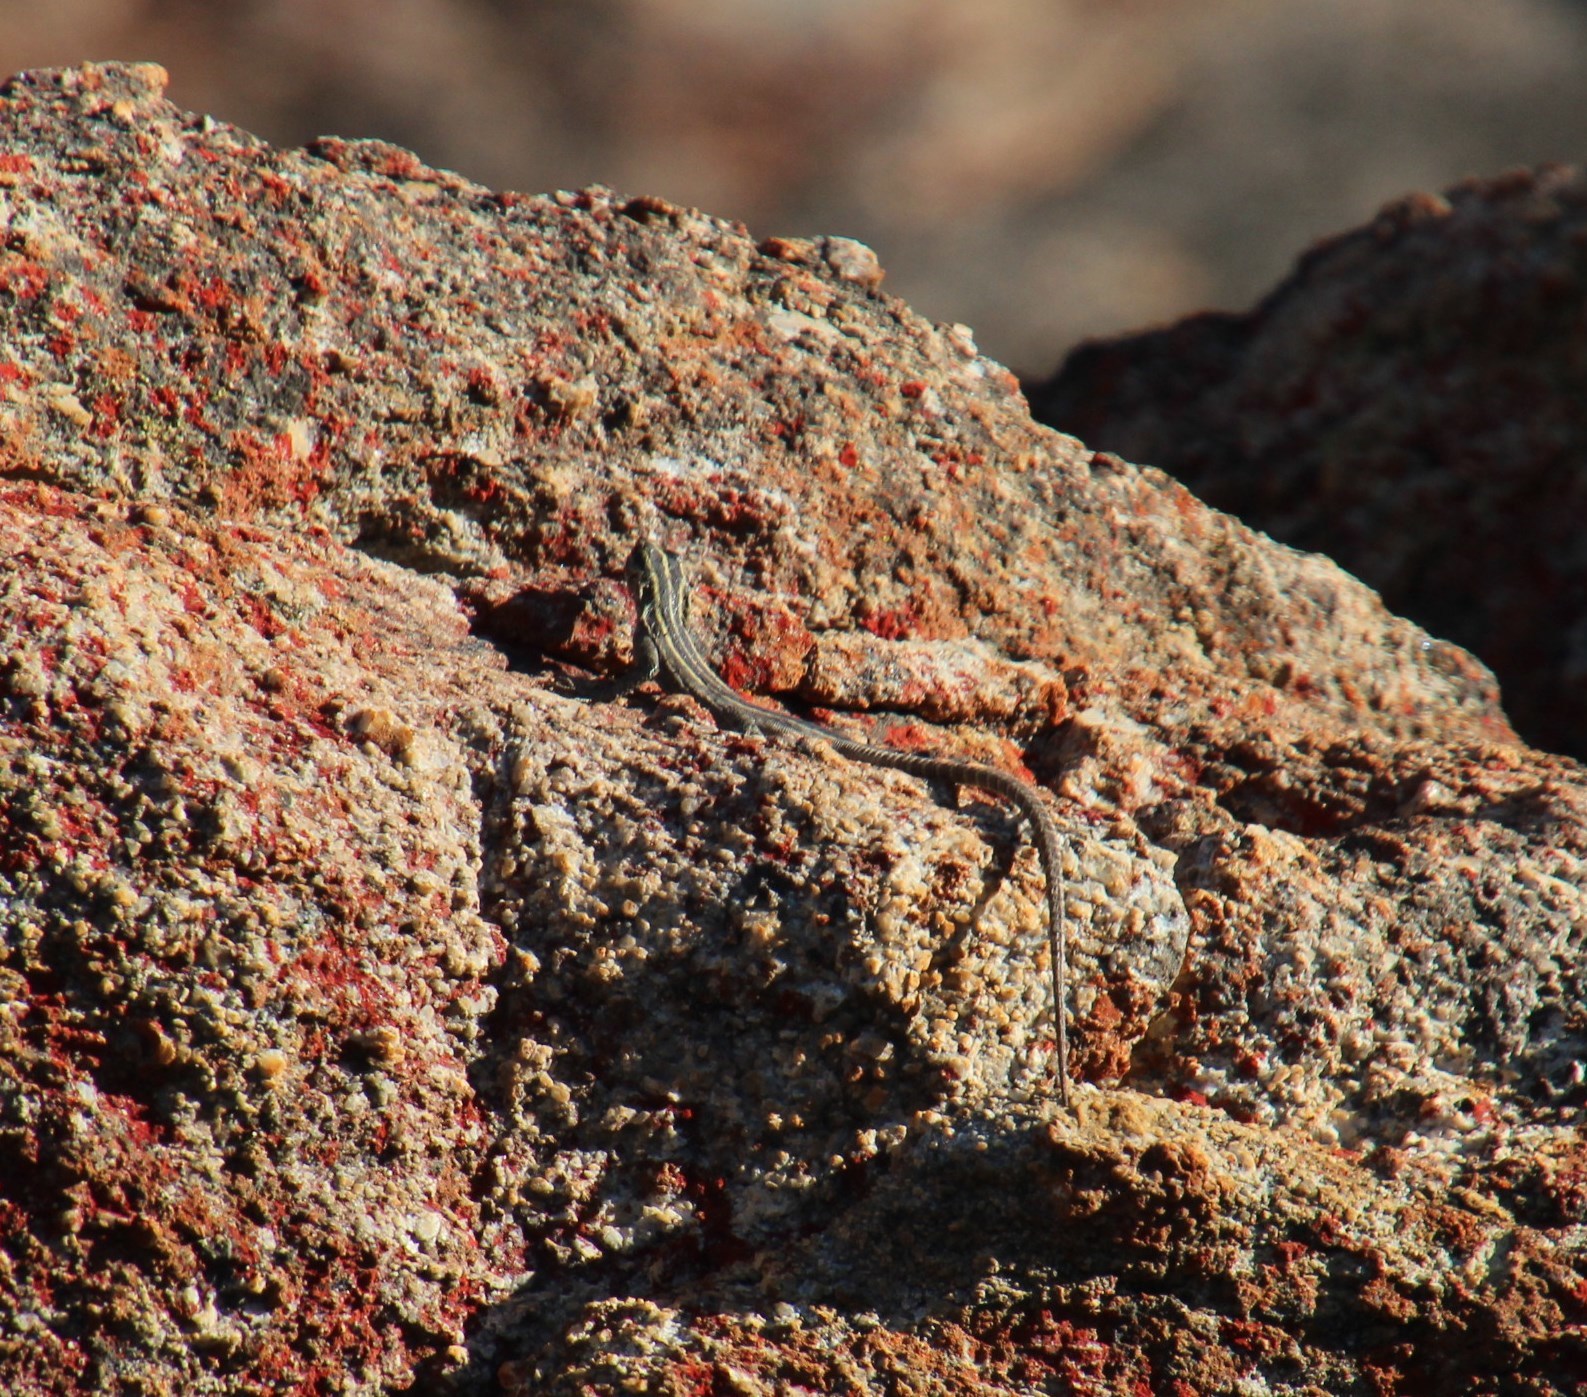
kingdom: Animalia
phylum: Chordata
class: Squamata
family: Cordylidae
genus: Platysaurus
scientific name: Platysaurus capensis
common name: Namaqua flat lizard
